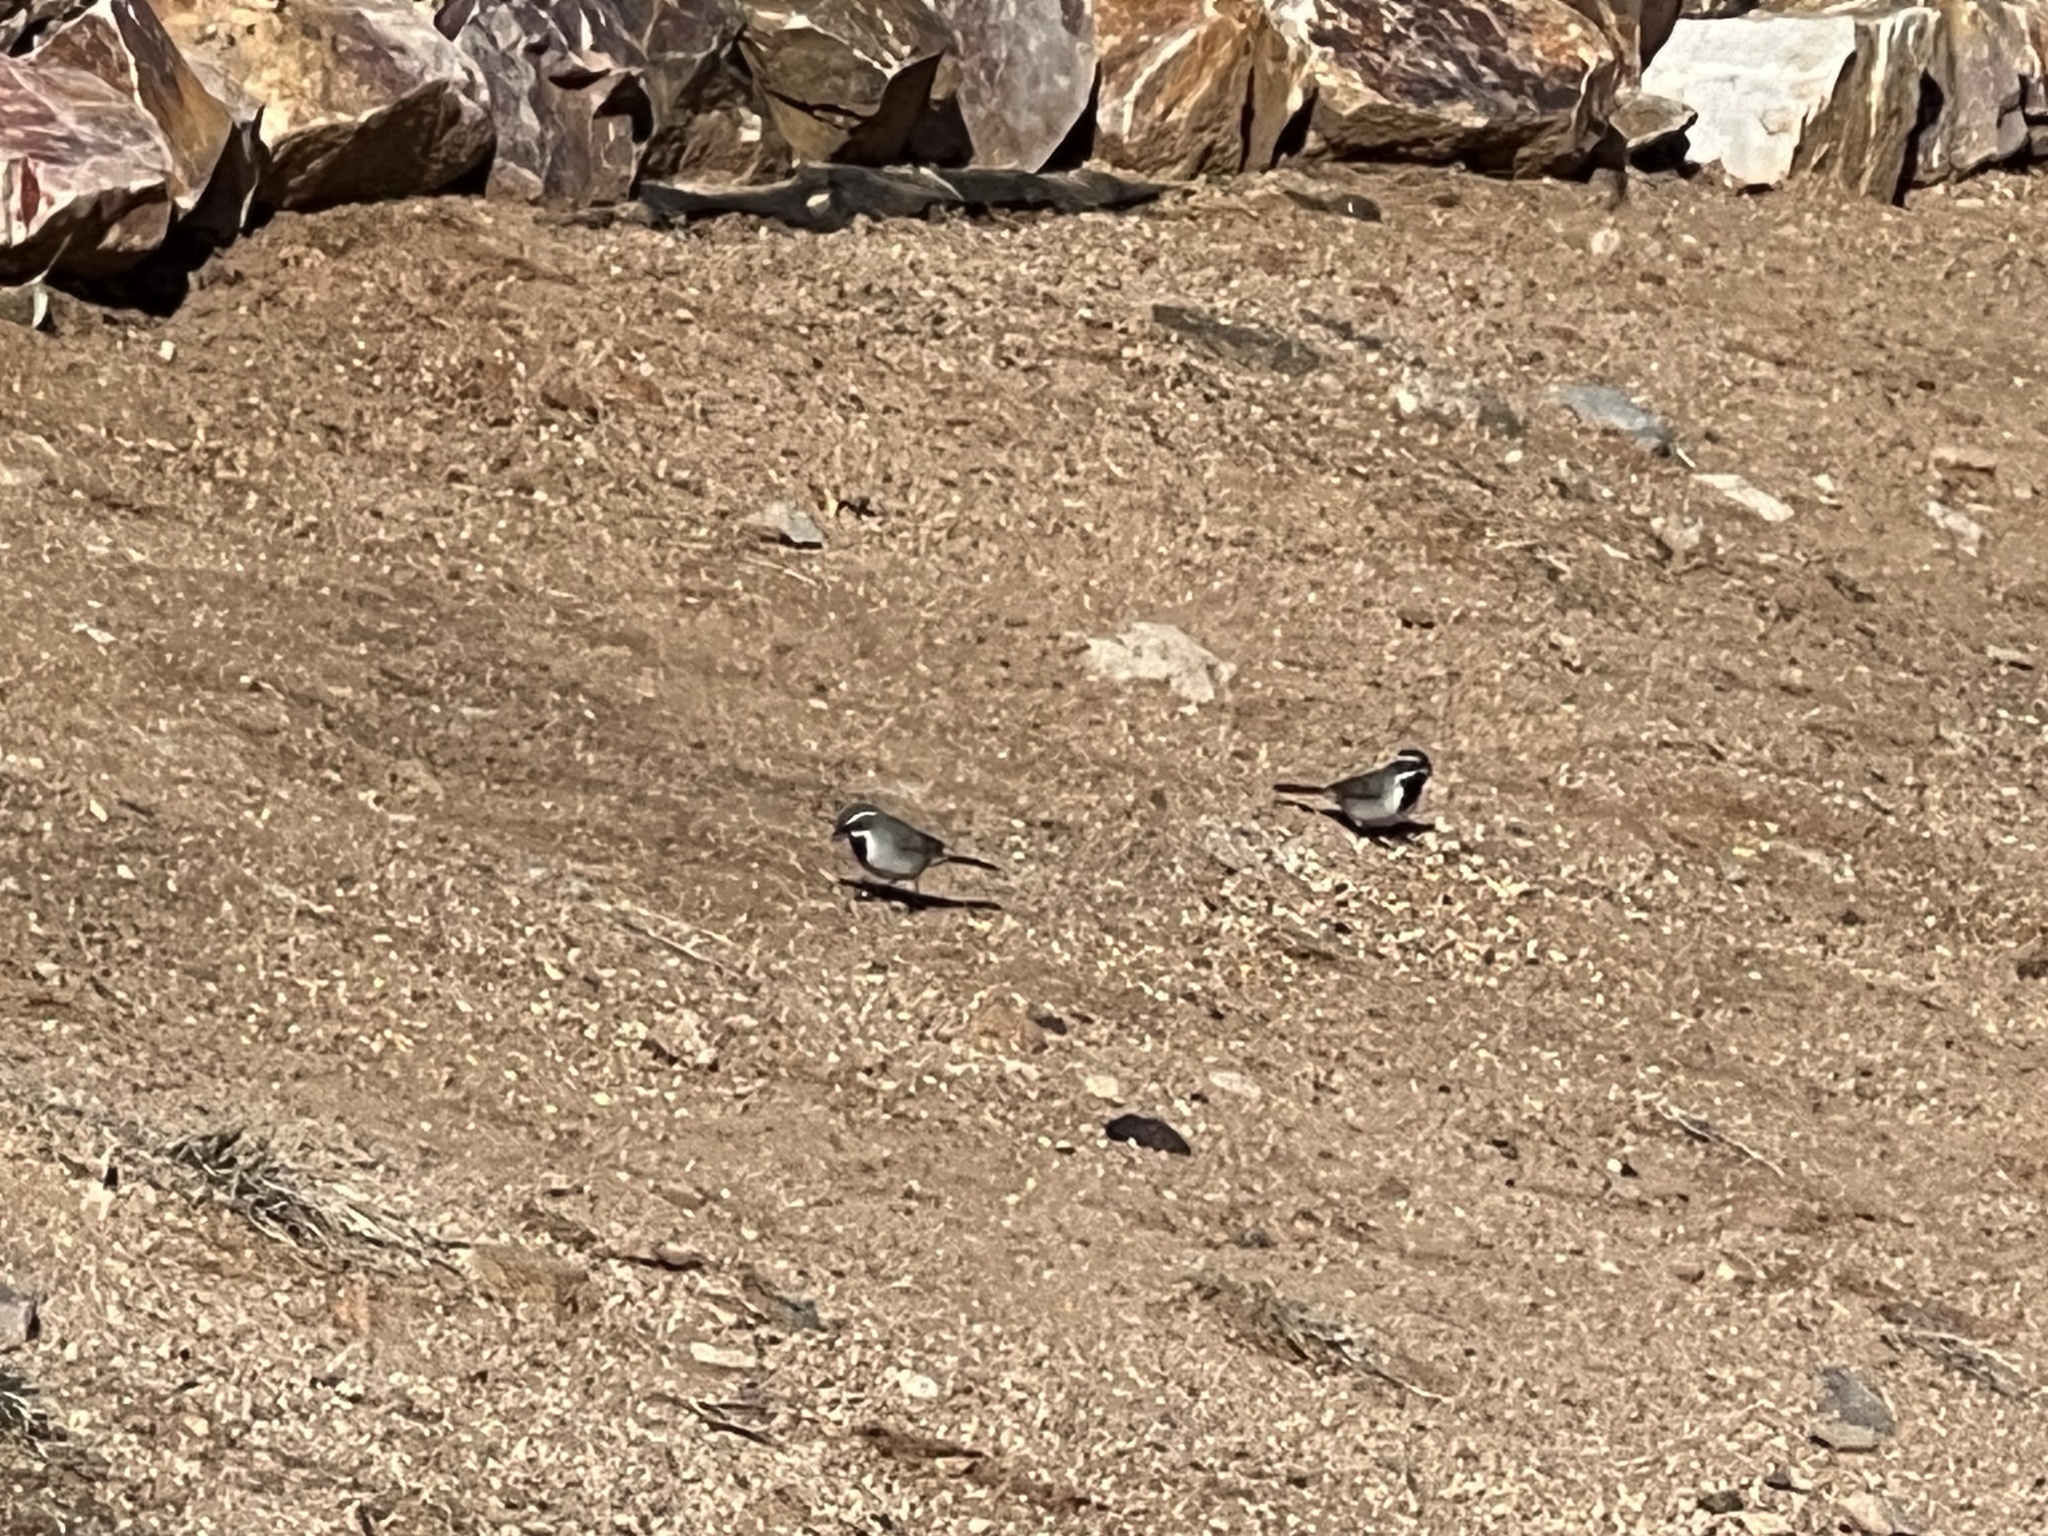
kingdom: Animalia
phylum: Chordata
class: Aves
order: Passeriformes
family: Passerellidae
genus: Amphispiza
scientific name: Amphispiza bilineata
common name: Black-throated sparrow
